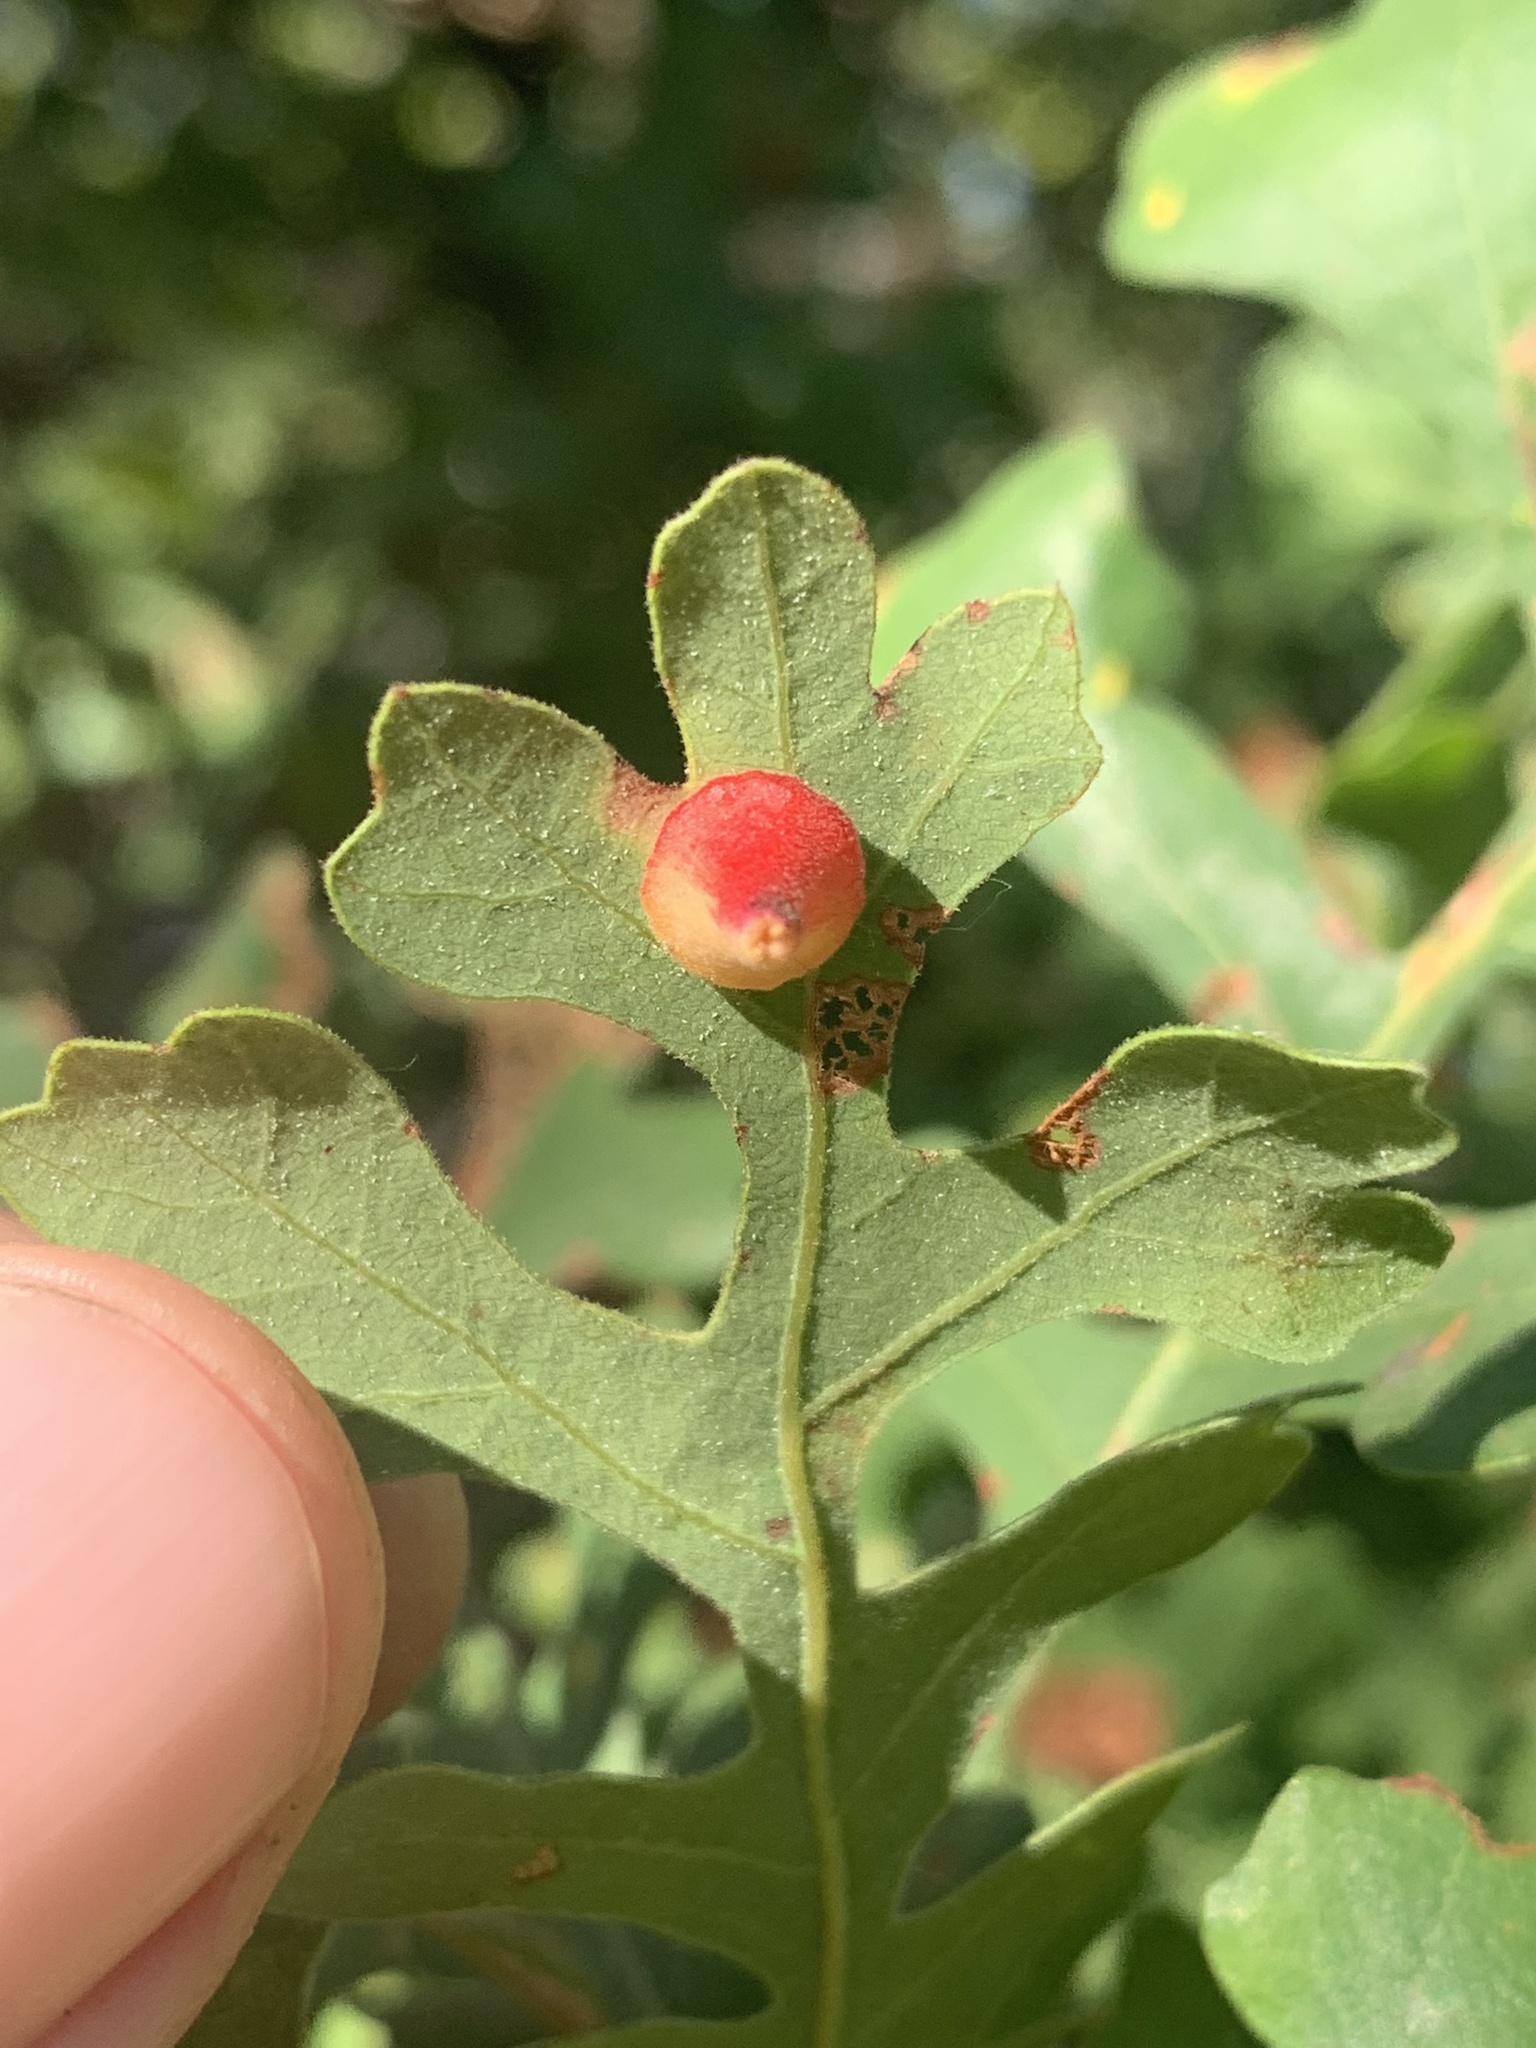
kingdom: Animalia
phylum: Arthropoda
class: Insecta
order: Hymenoptera
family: Cynipidae
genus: Andricus
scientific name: Andricus
